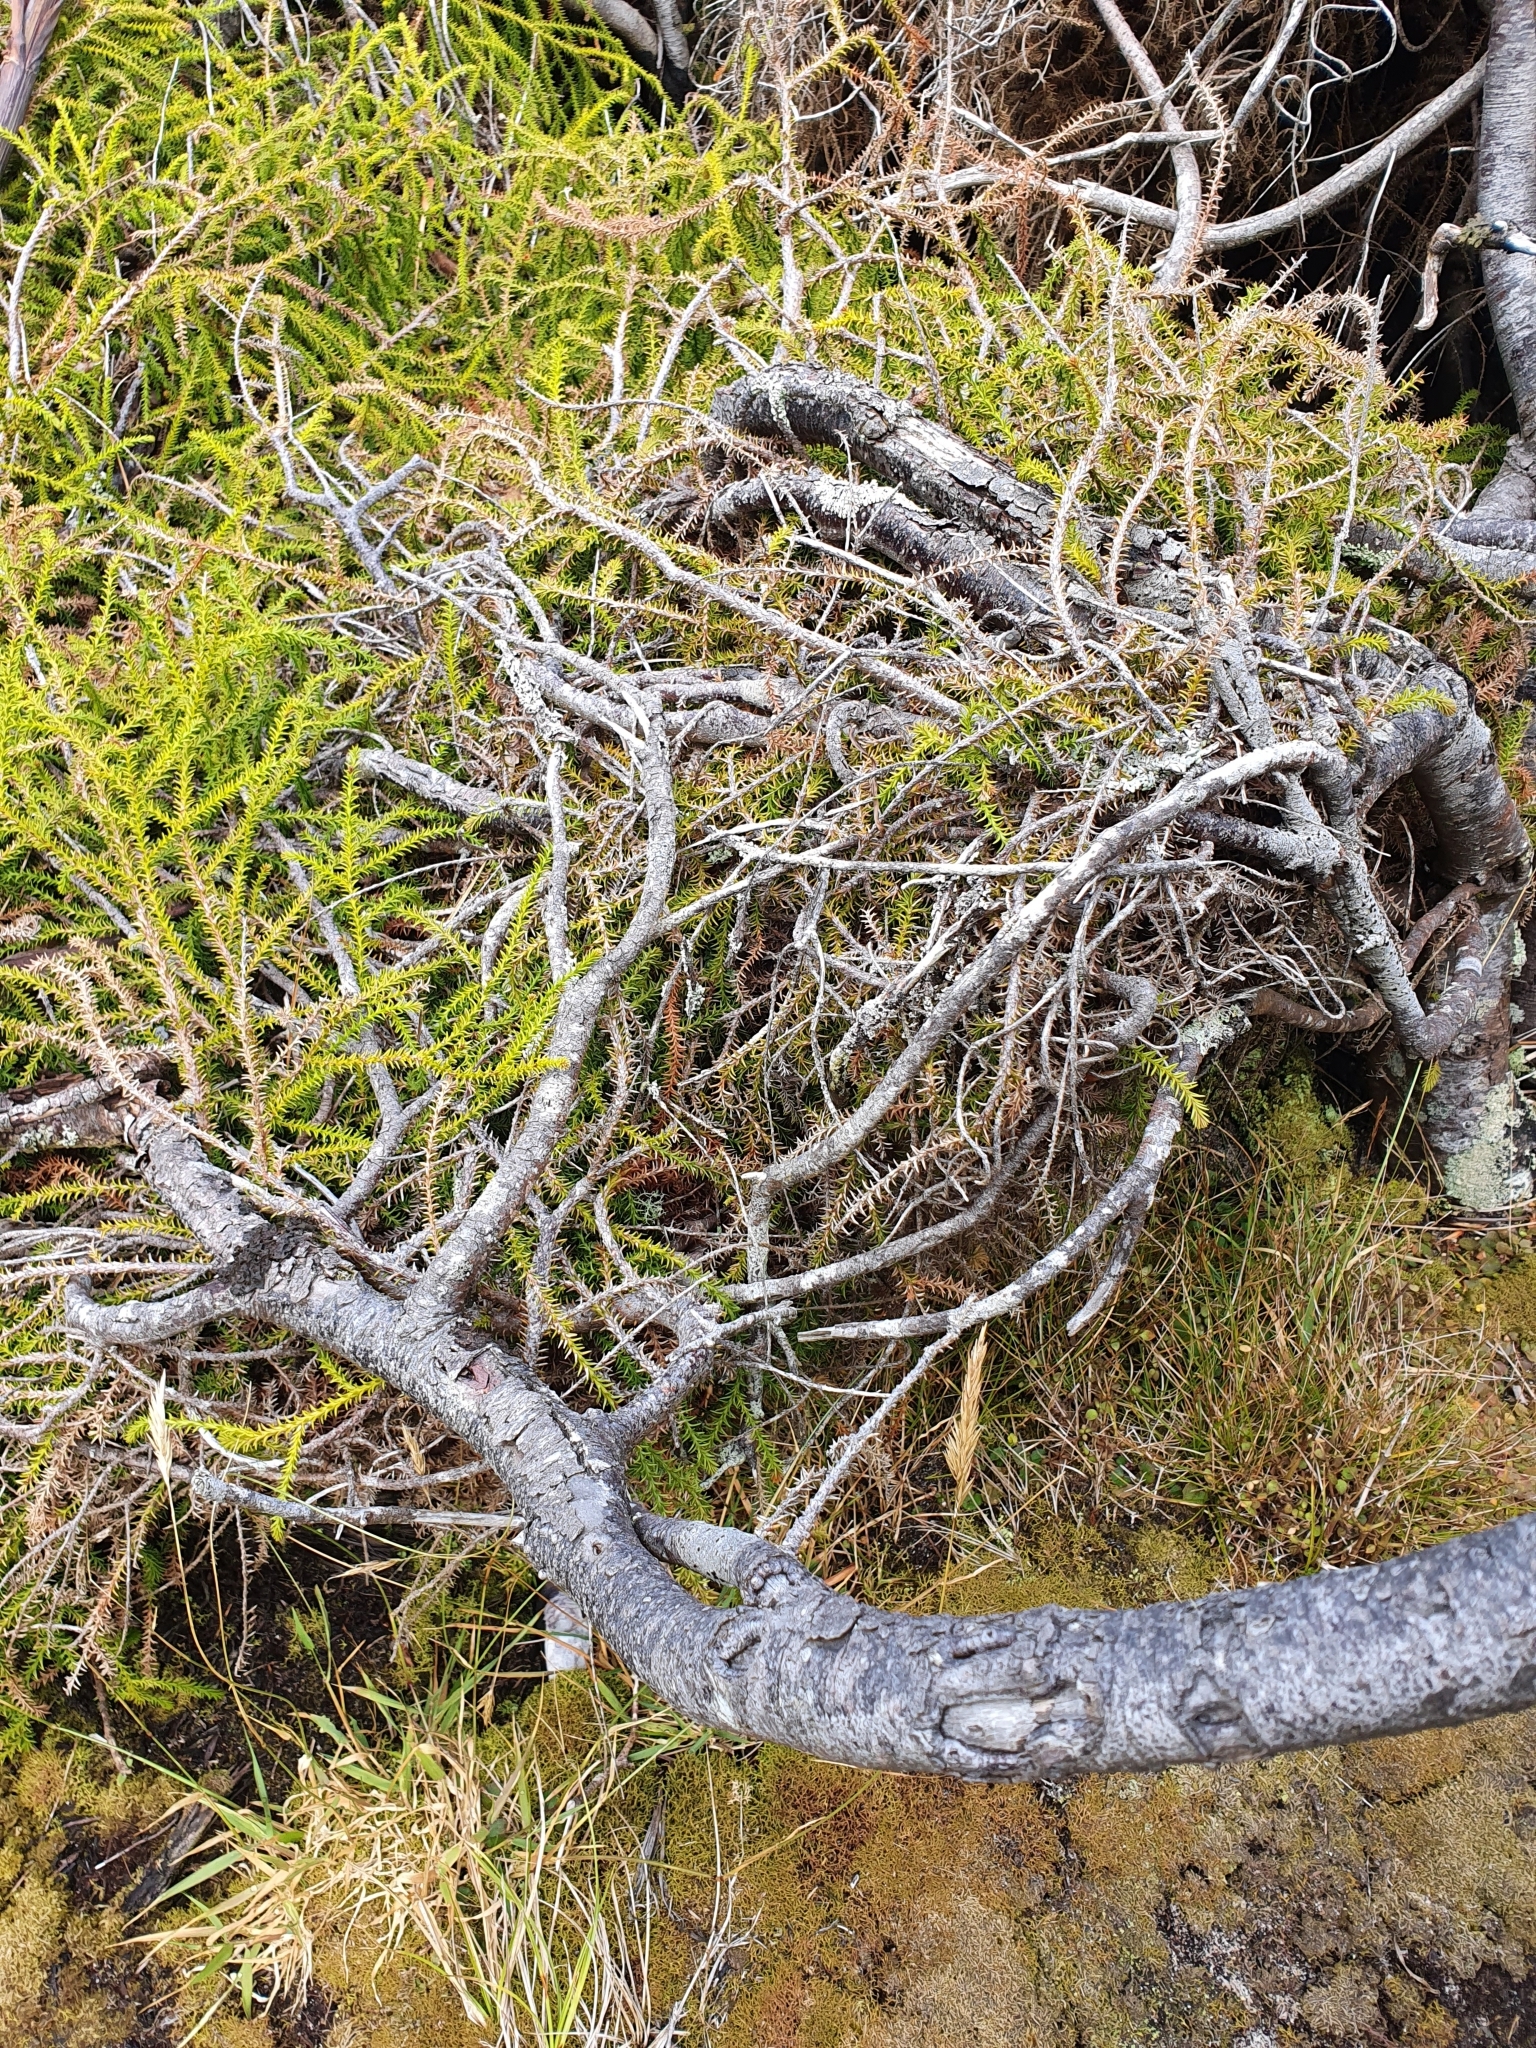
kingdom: Plantae
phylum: Tracheophyta
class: Pinopsida
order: Pinales
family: Podocarpaceae
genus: Dacrydium
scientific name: Dacrydium cupressinum
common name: Red pine
